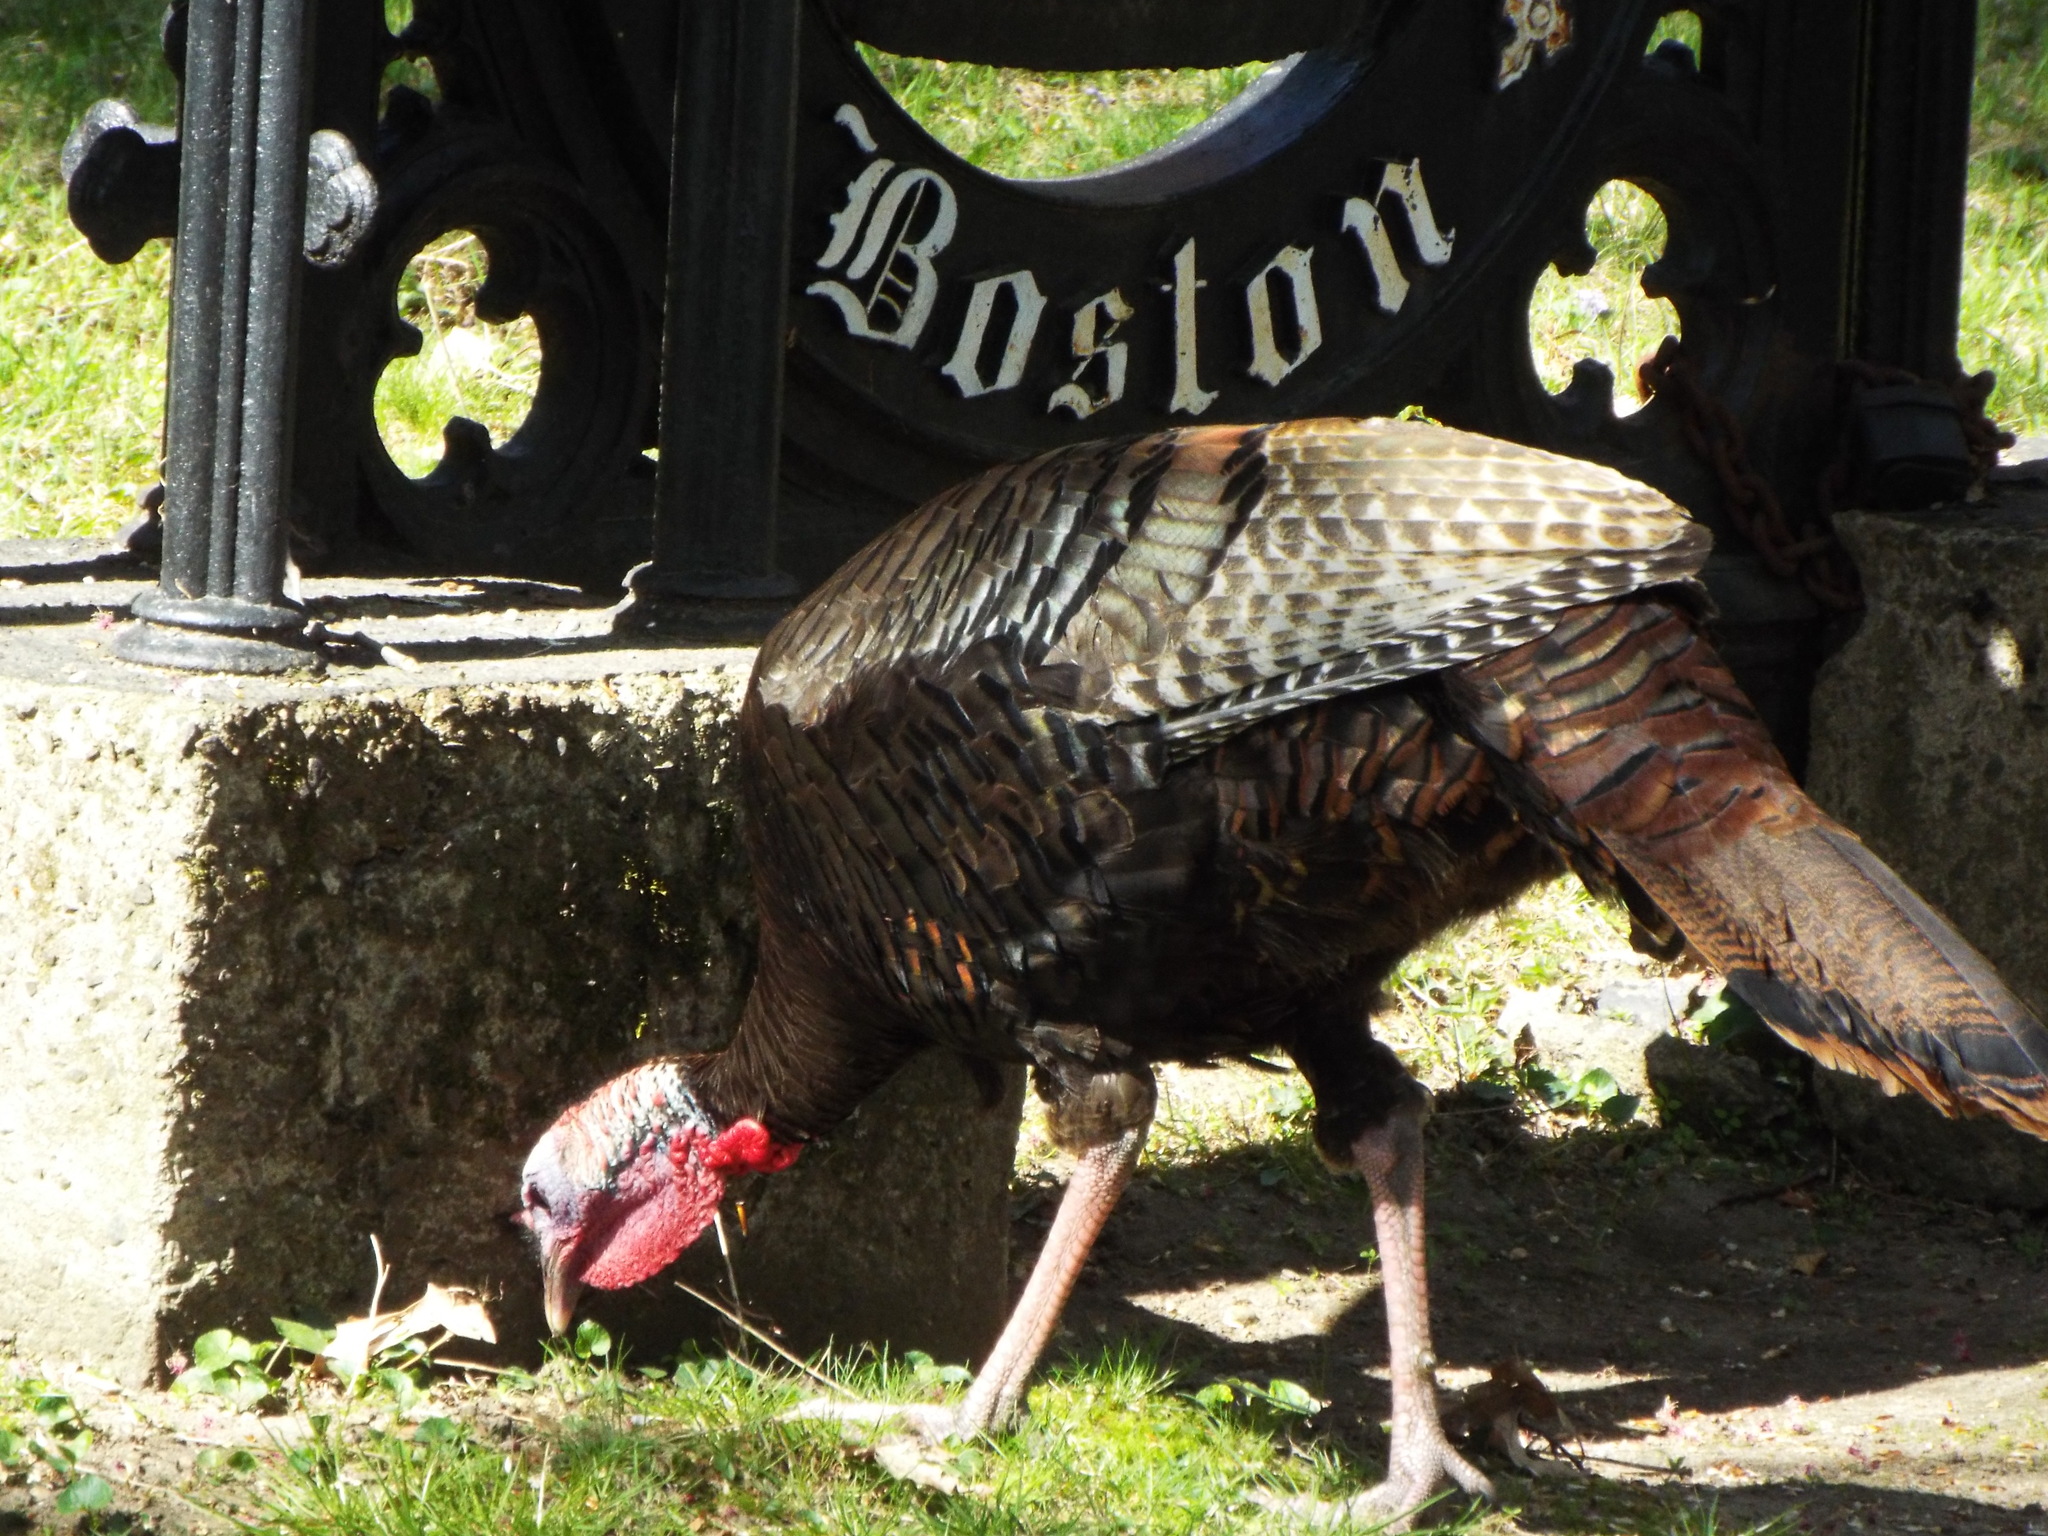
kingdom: Animalia
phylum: Chordata
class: Aves
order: Galliformes
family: Phasianidae
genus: Meleagris
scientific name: Meleagris gallopavo
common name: Wild turkey
